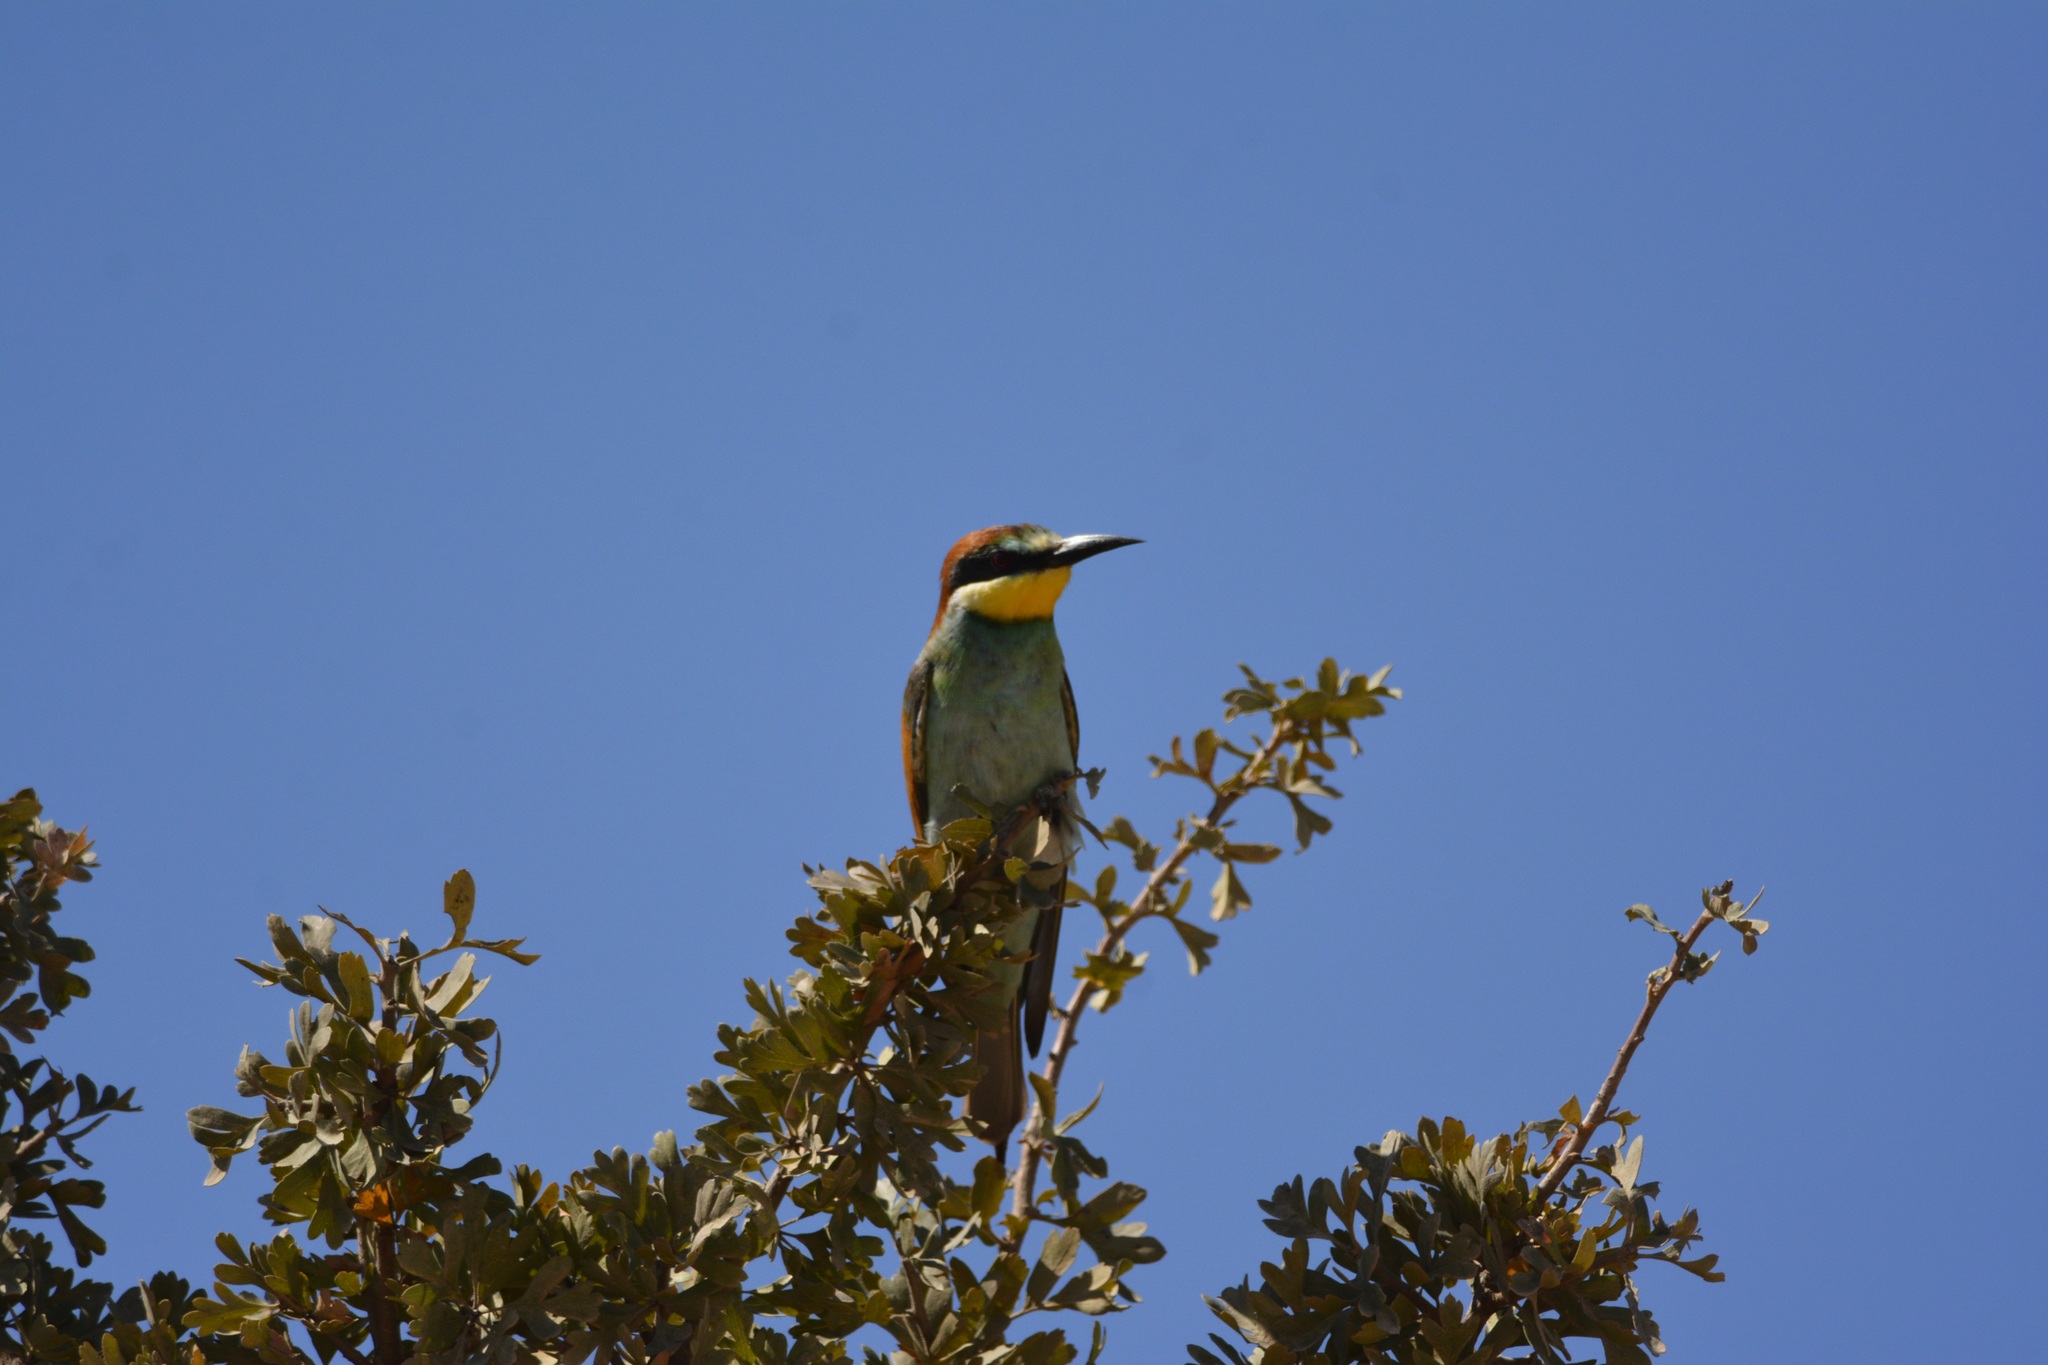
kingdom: Animalia
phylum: Chordata
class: Aves
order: Coraciiformes
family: Meropidae
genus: Merops
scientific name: Merops apiaster
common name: European bee-eater
